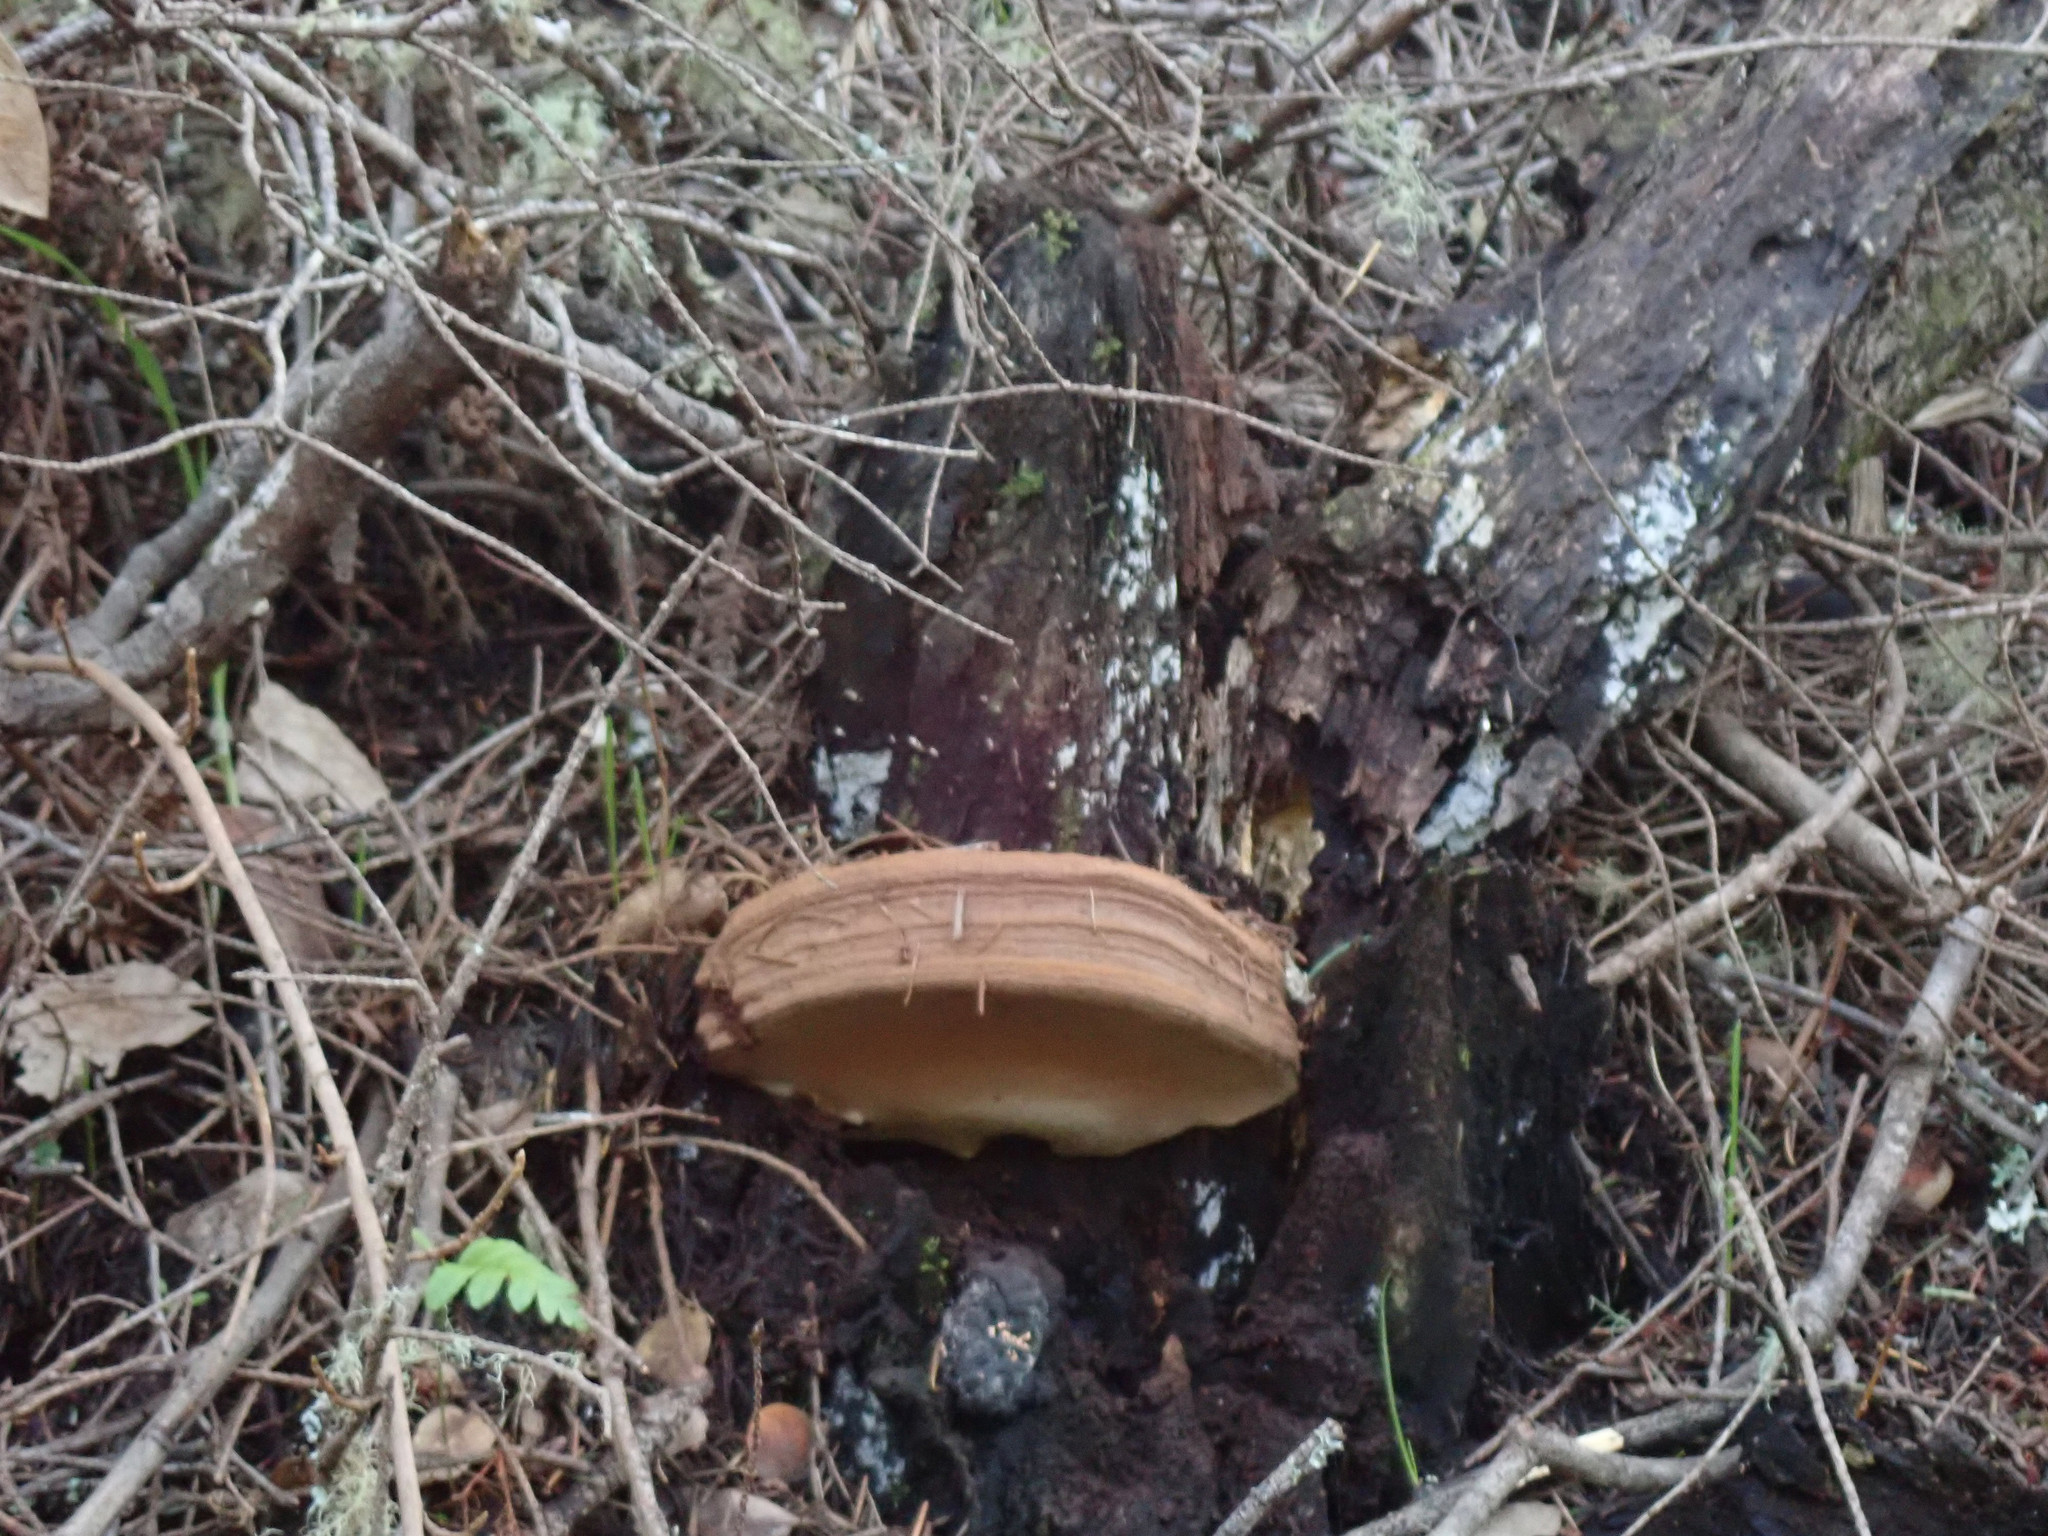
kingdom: Fungi
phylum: Basidiomycota
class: Agaricomycetes
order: Polyporales
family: Polyporaceae
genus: Ganoderma
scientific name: Ganoderma brownii
